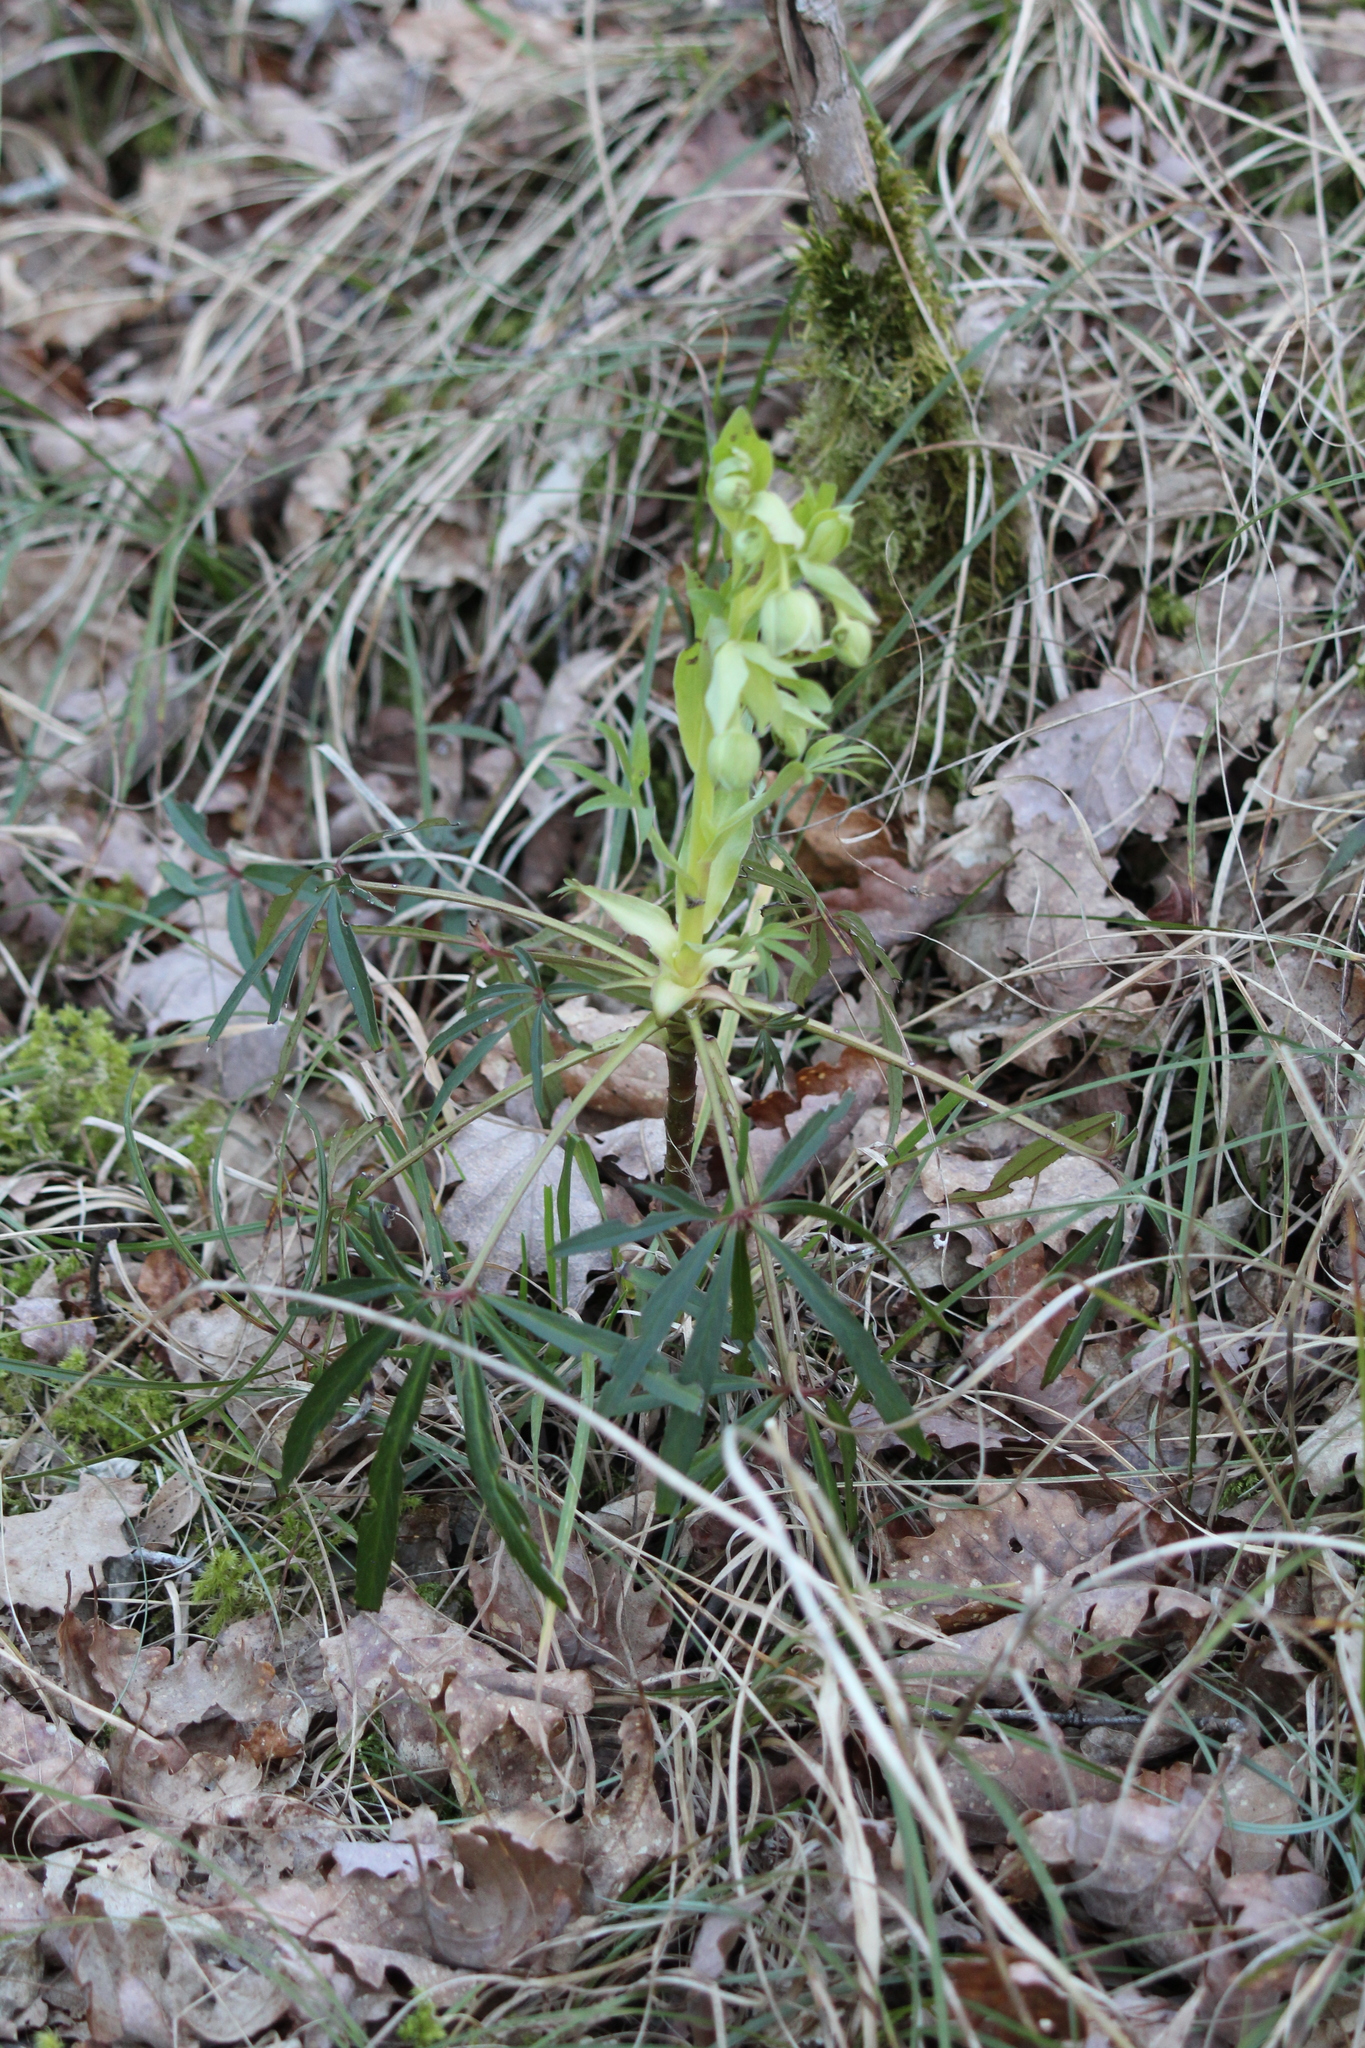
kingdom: Plantae
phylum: Tracheophyta
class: Magnoliopsida
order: Ranunculales
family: Ranunculaceae
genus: Helleborus
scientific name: Helleborus foetidus
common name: Stinking hellebore
